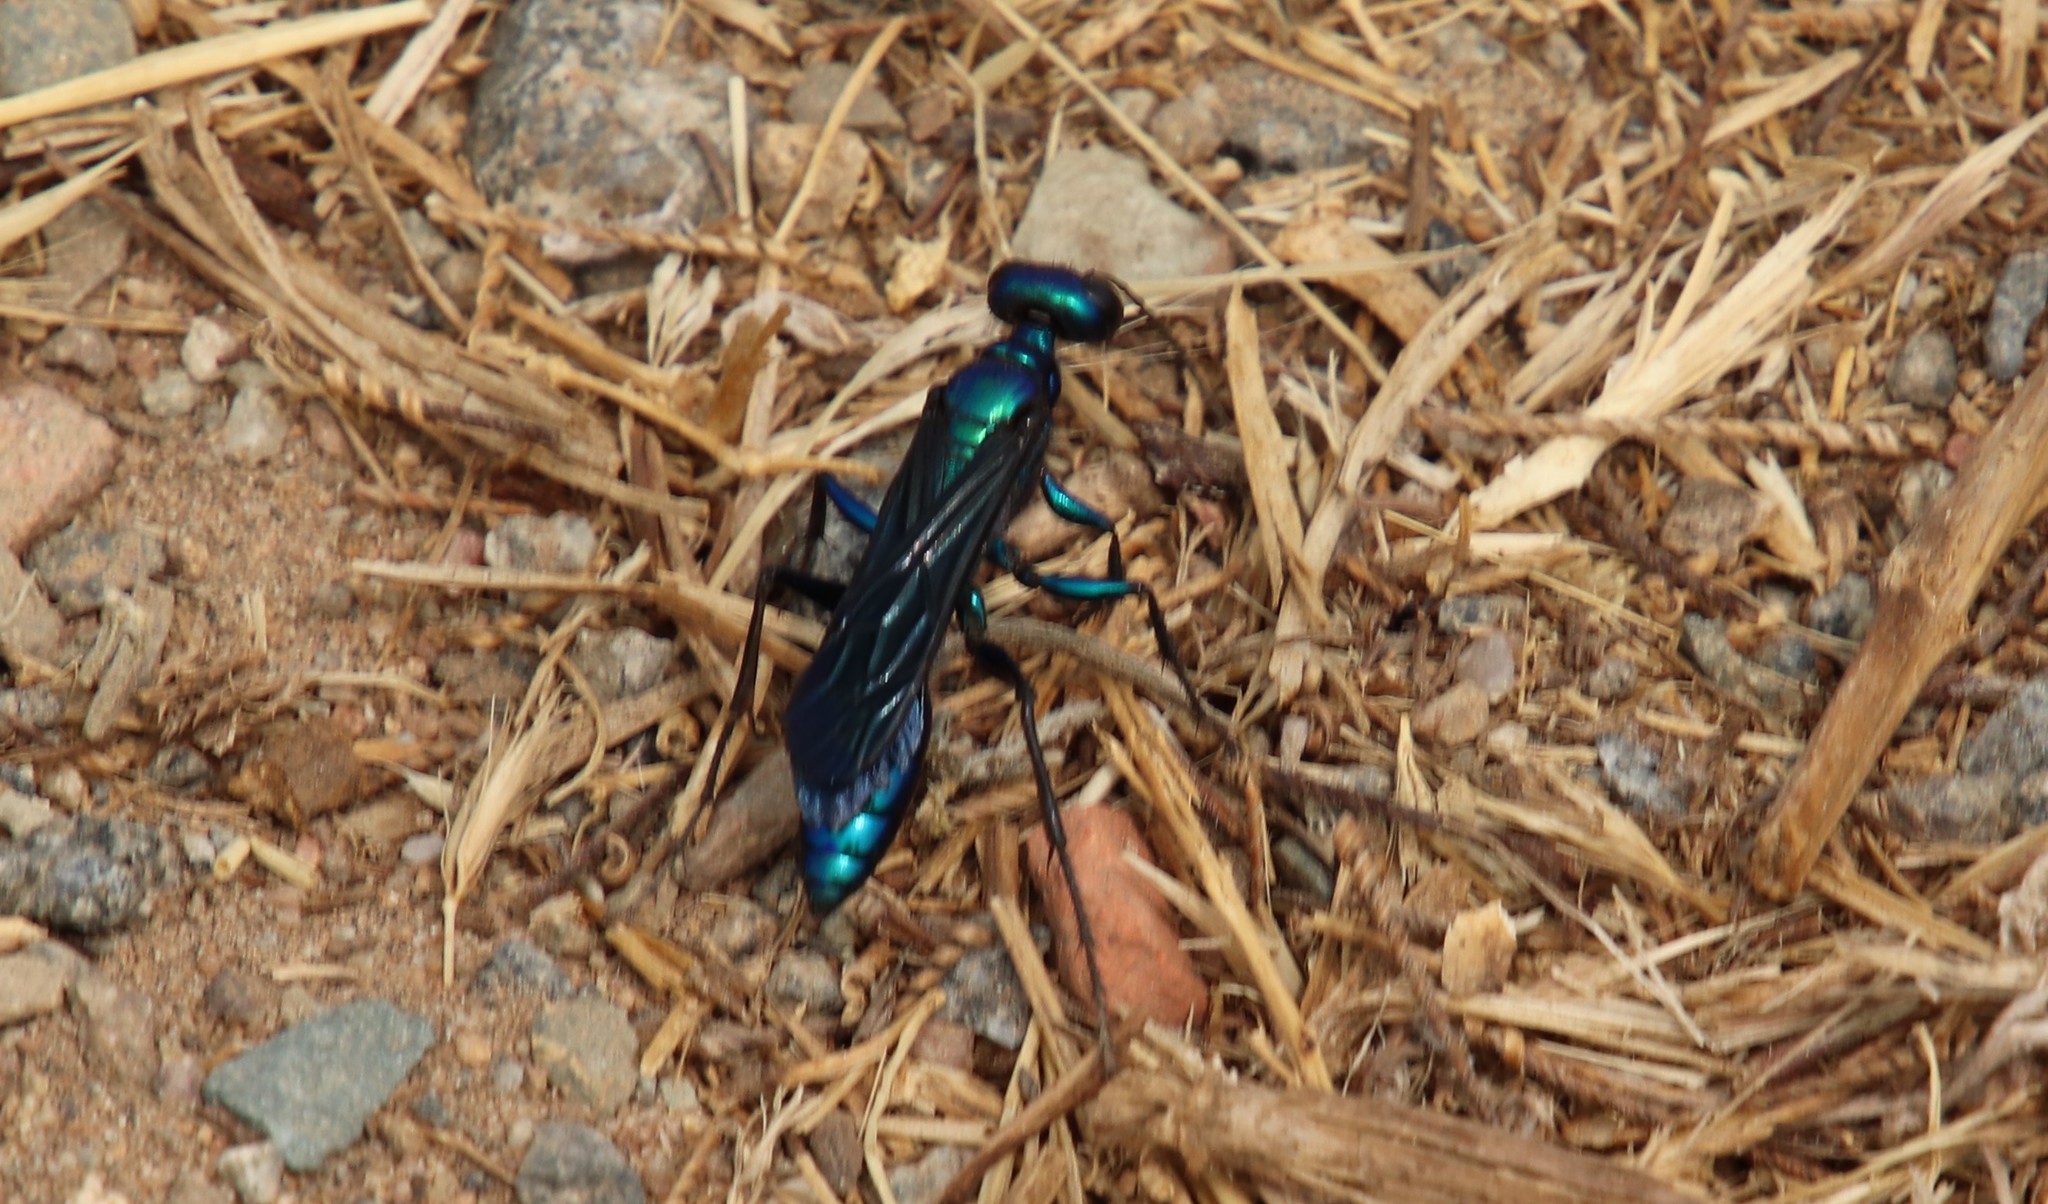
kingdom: Animalia
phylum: Arthropoda
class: Insecta
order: Hymenoptera
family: Sphecidae
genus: Chlorion
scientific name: Chlorion aerarium
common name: Steel-blue cricket hunter
